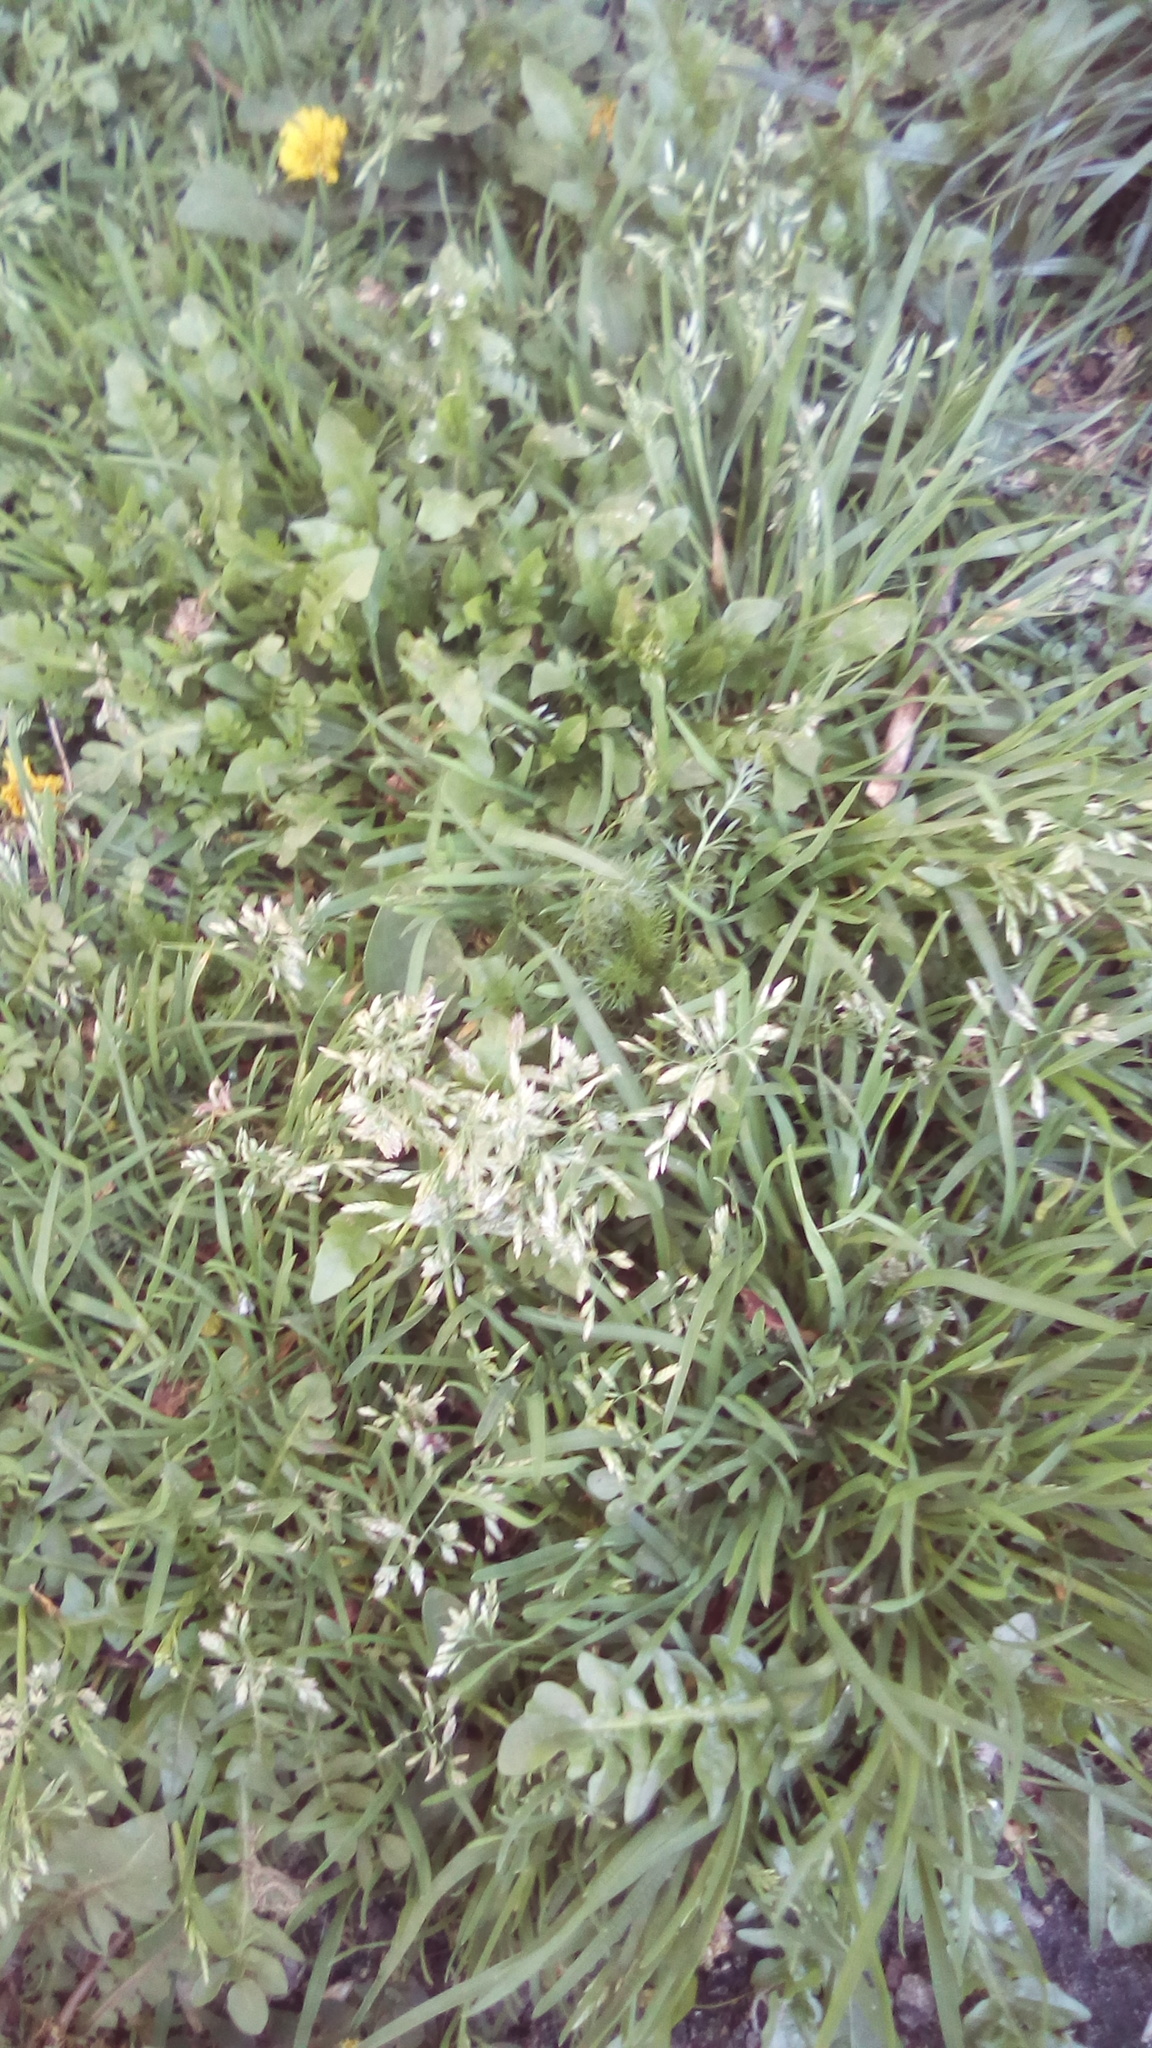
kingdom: Plantae
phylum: Tracheophyta
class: Liliopsida
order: Poales
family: Poaceae
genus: Poa
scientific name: Poa annua
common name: Annual bluegrass
